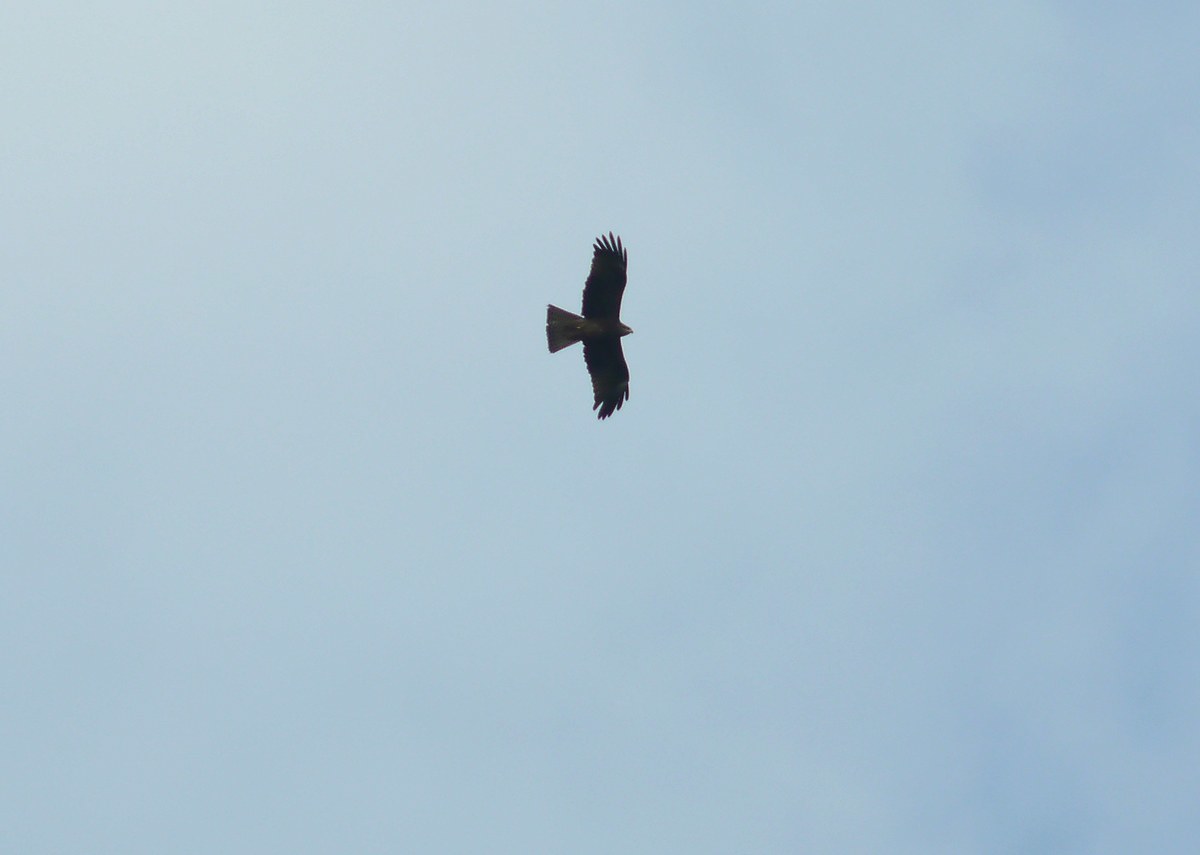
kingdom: Animalia
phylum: Chordata
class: Aves
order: Accipitriformes
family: Accipitridae
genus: Milvus
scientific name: Milvus migrans
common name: Black kite
